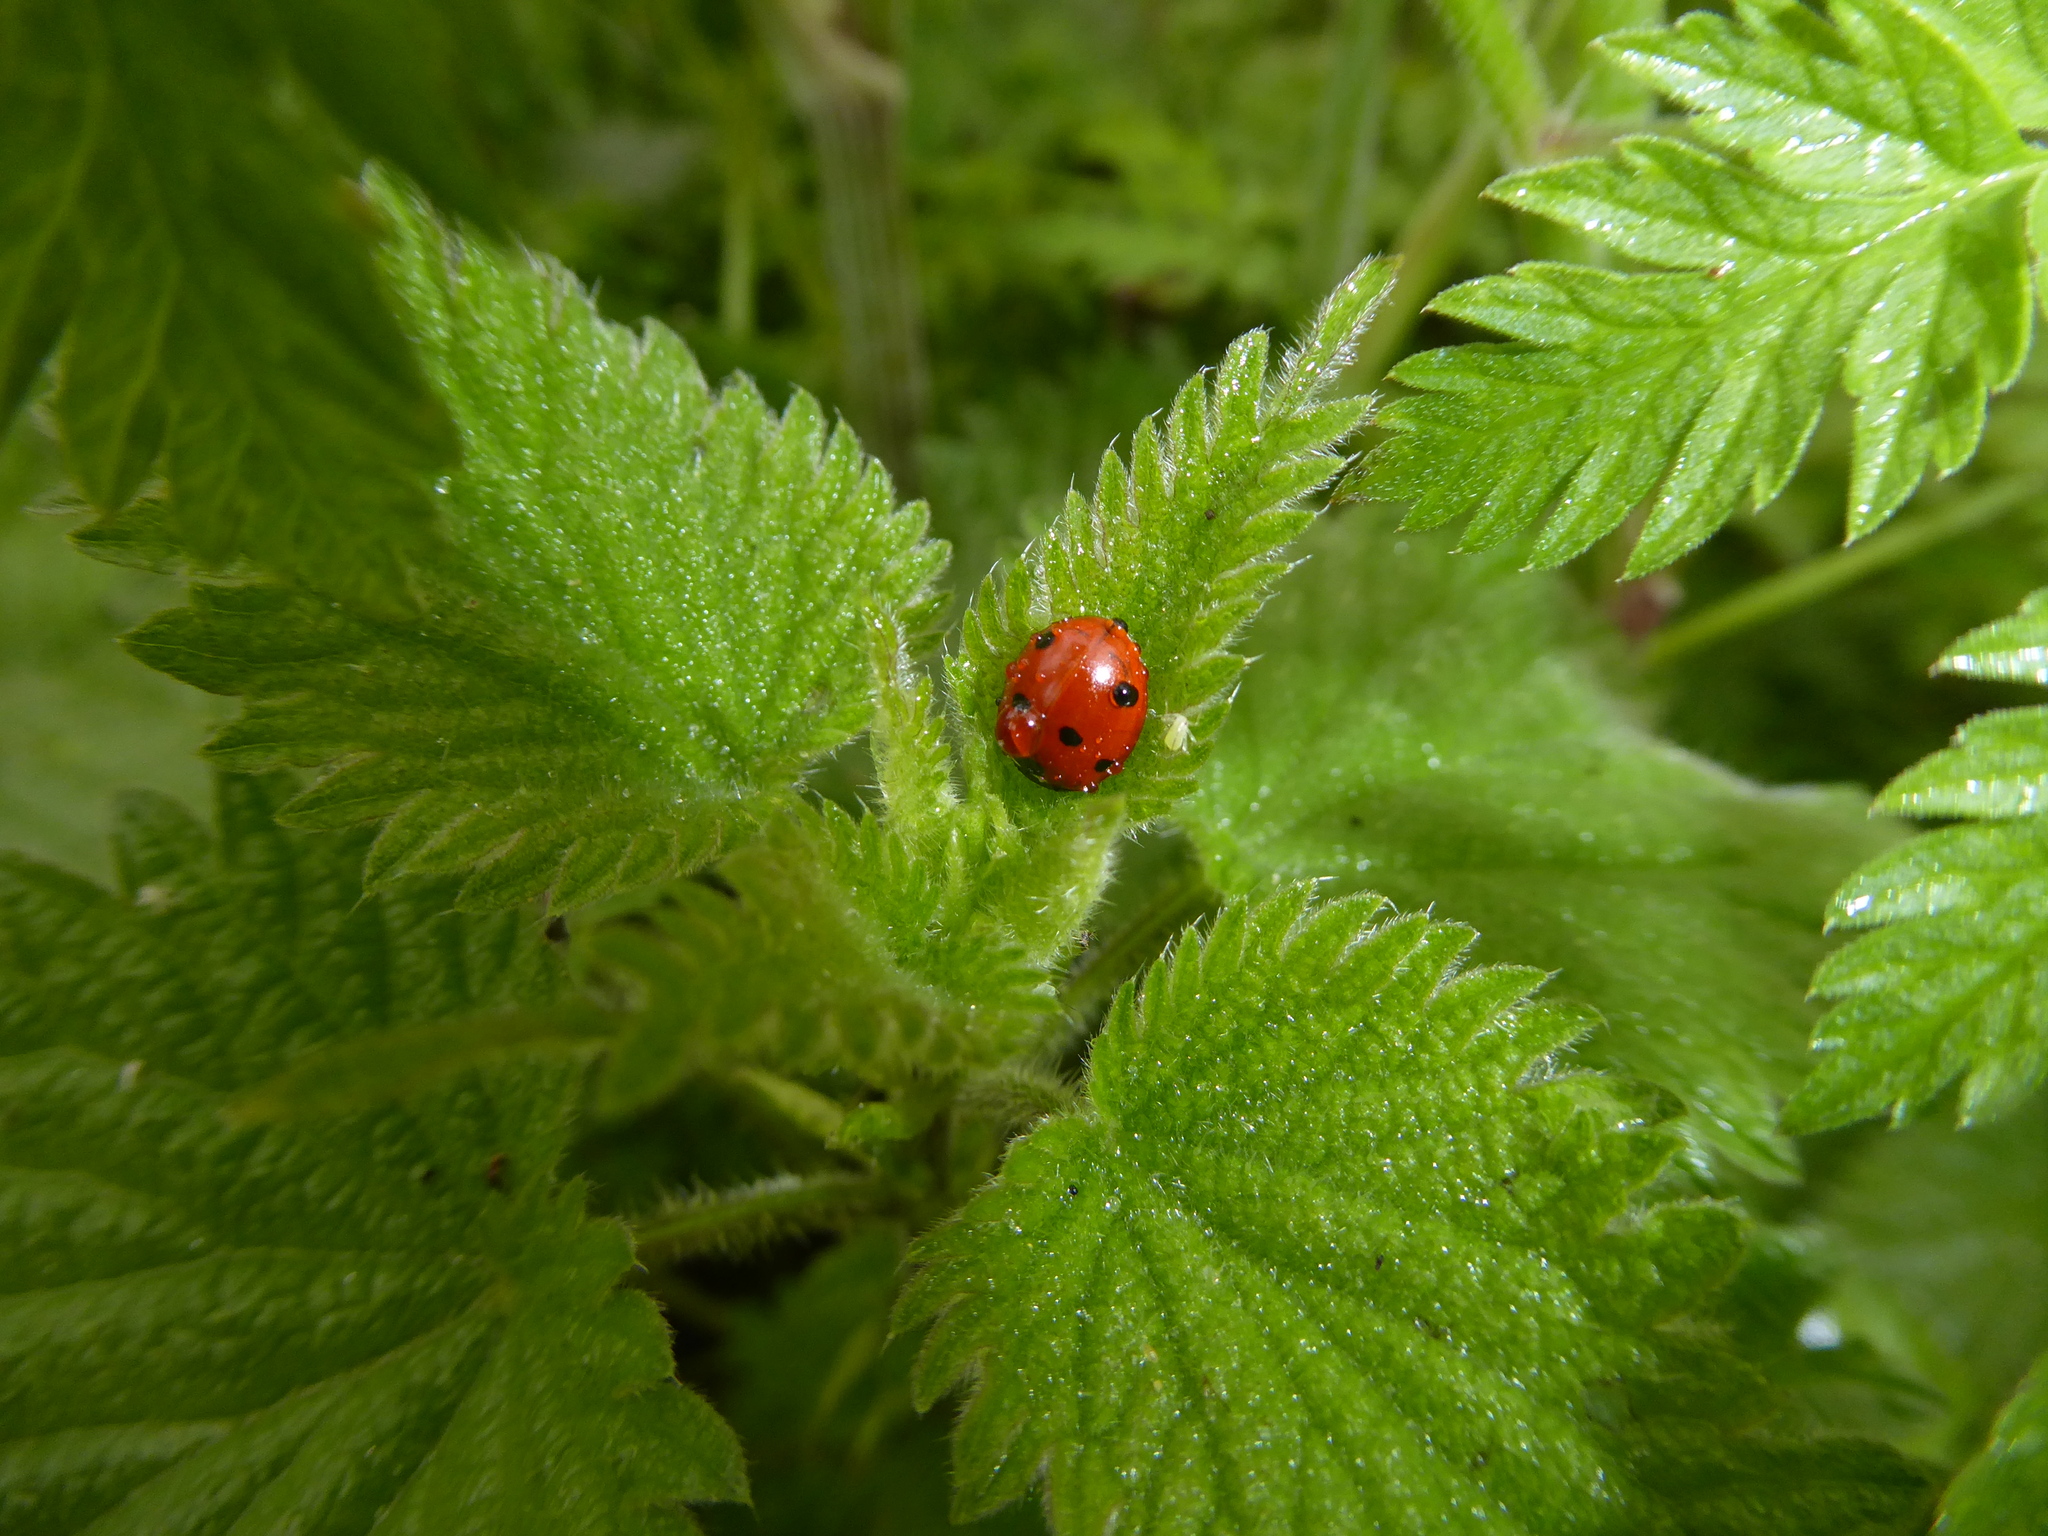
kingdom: Animalia
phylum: Arthropoda
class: Insecta
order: Coleoptera
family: Coccinellidae
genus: Coccinella
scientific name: Coccinella septempunctata
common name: Sevenspotted lady beetle
